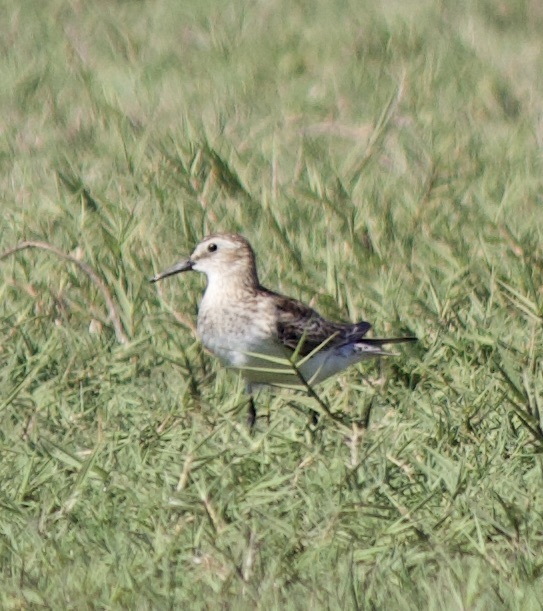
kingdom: Animalia
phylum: Chordata
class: Aves
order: Charadriiformes
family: Scolopacidae
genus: Calidris
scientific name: Calidris bairdii
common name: Baird's sandpiper
